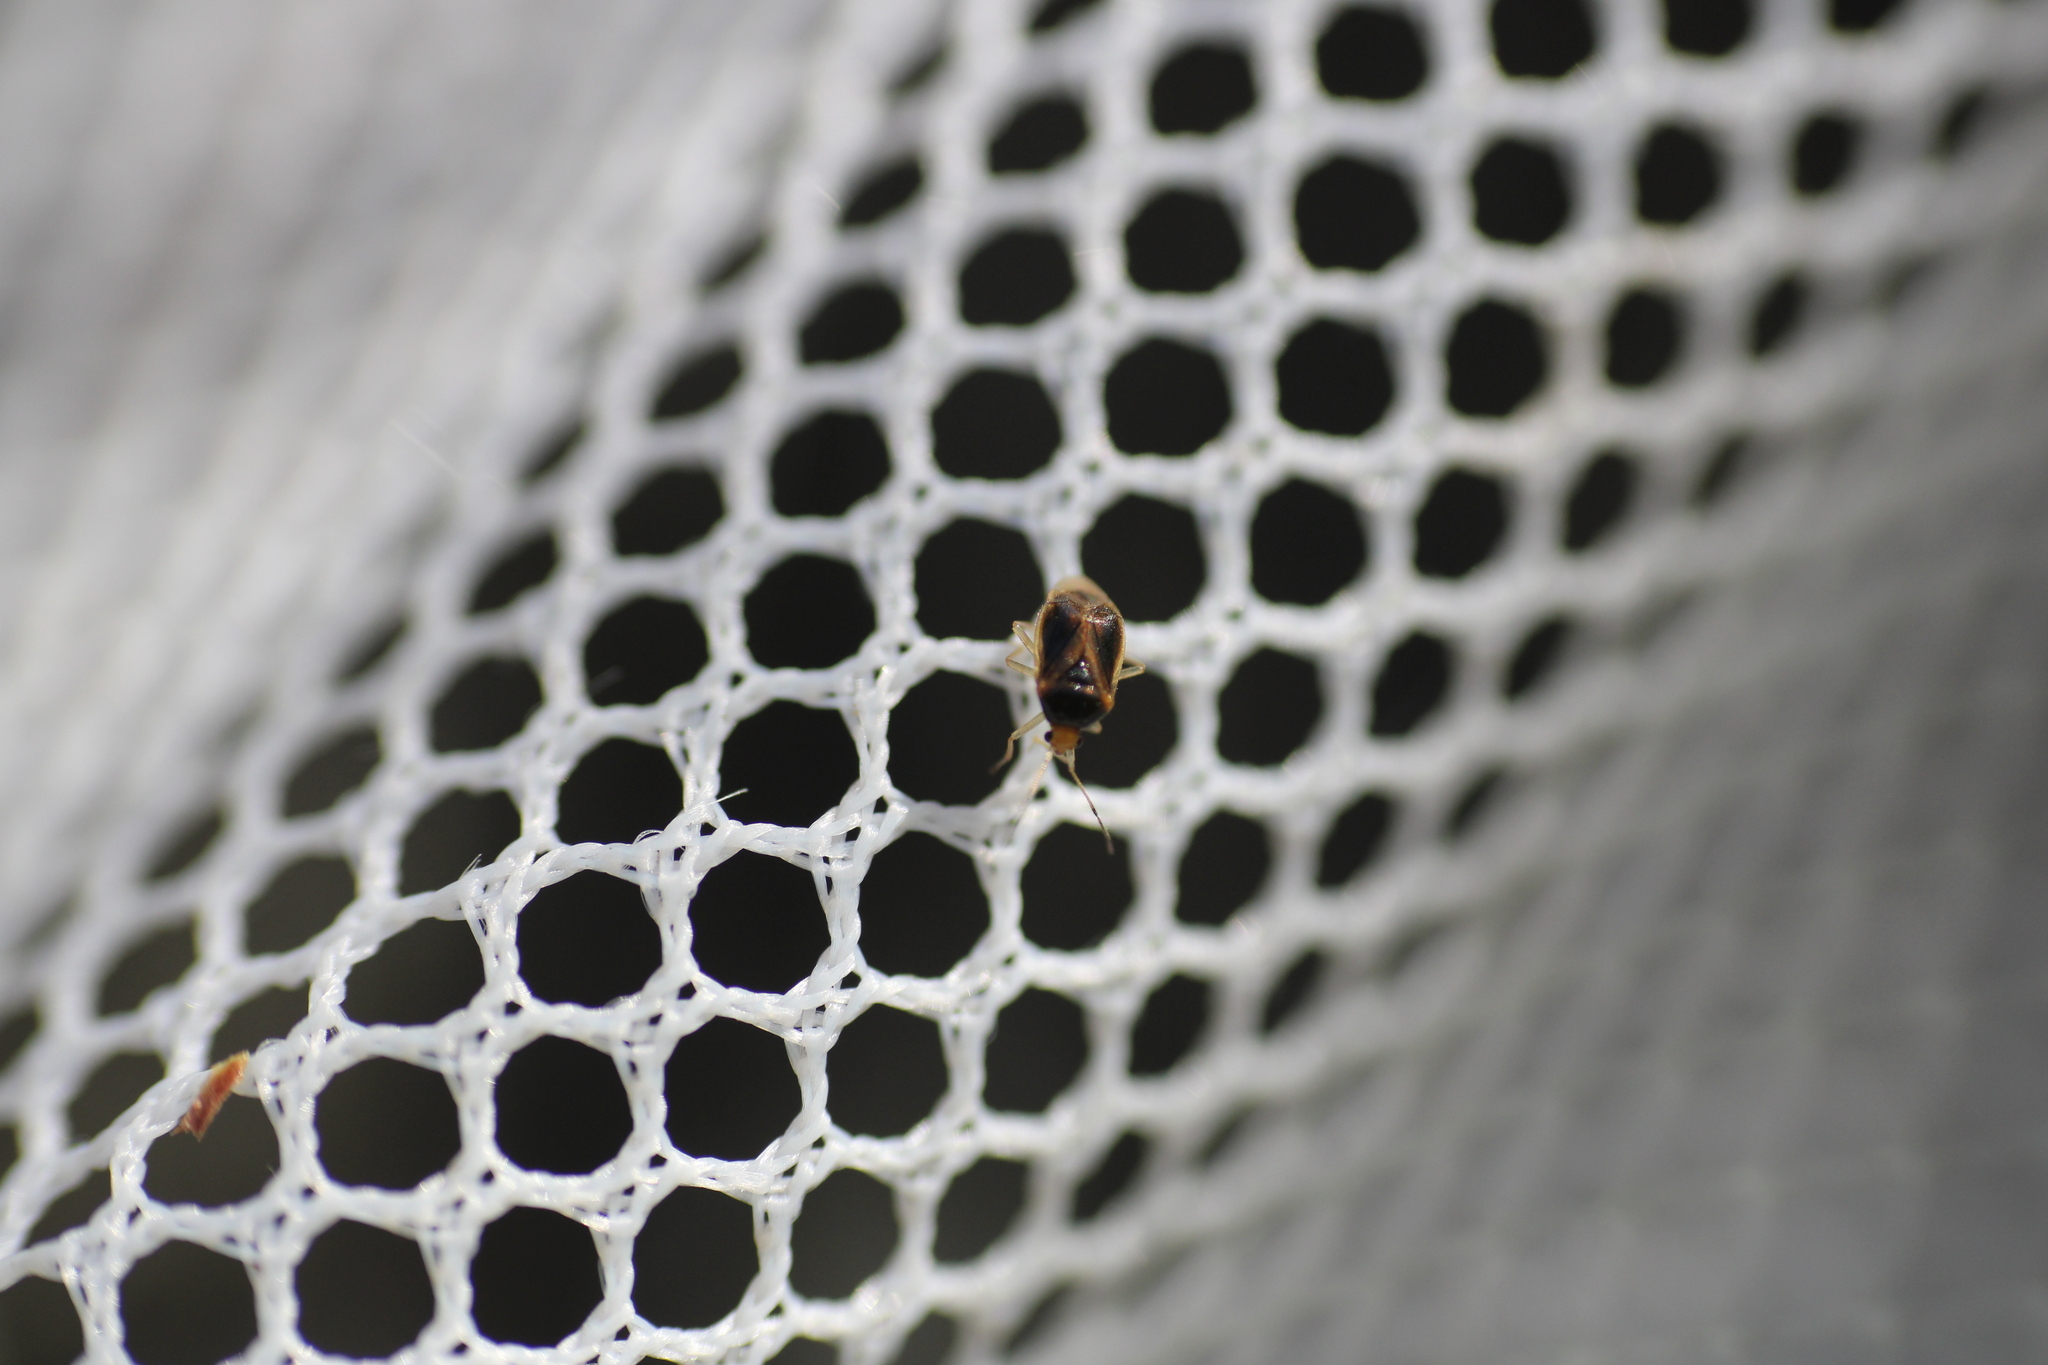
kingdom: Animalia
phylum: Arthropoda
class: Insecta
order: Hemiptera
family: Miridae
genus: Monalocoris
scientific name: Monalocoris filicis
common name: Bracken bug
